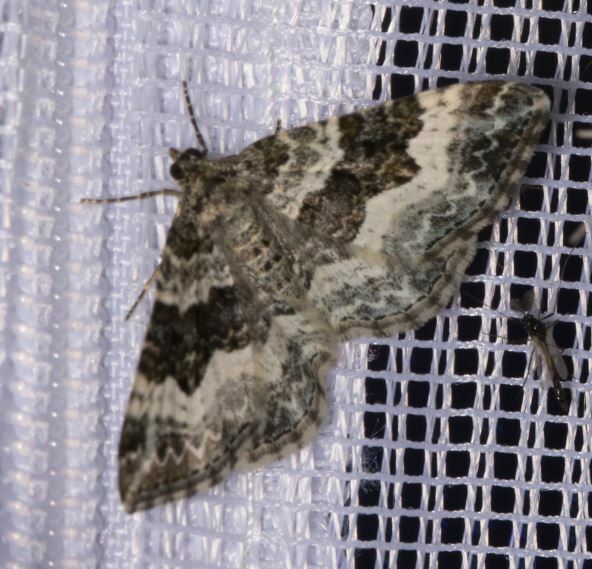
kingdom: Animalia
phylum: Arthropoda
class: Insecta
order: Lepidoptera
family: Geometridae
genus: Epirrhoe
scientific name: Epirrhoe alternata
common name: Common carpet
